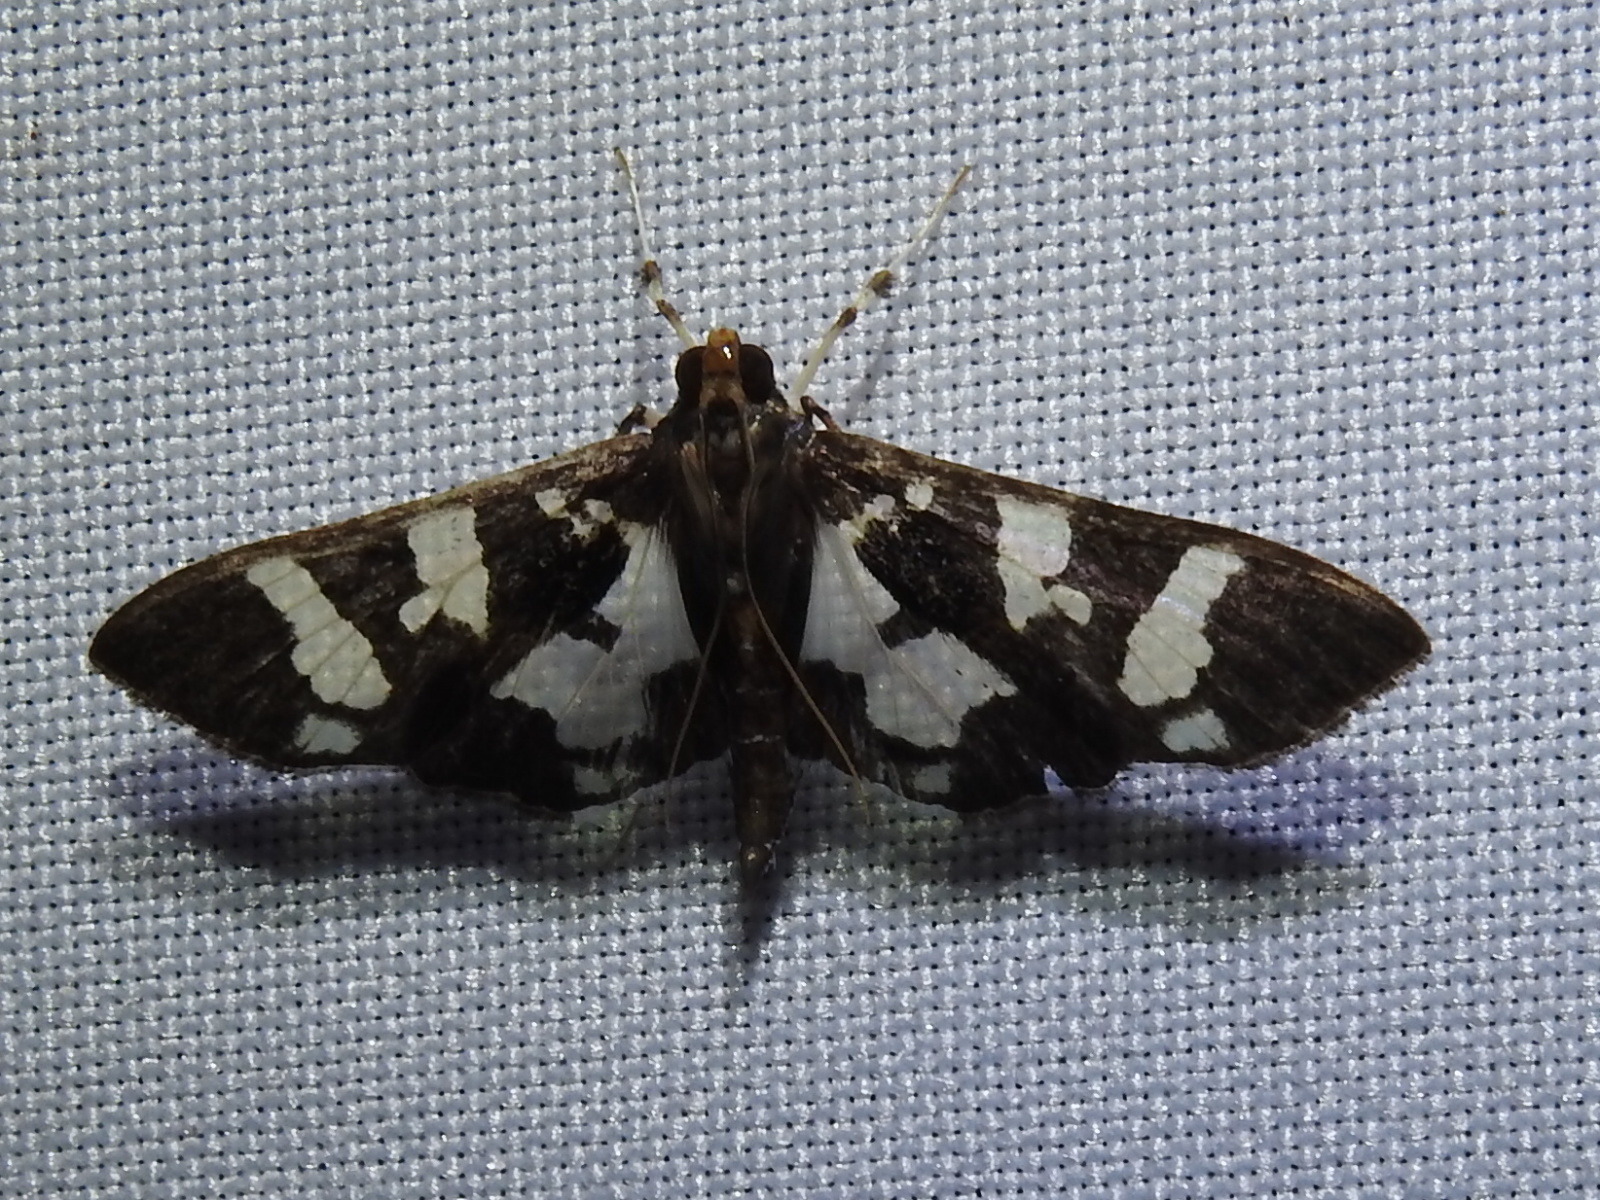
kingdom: Animalia
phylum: Arthropoda
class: Insecta
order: Lepidoptera
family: Crambidae
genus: Desmia
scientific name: Desmia bajulalis
